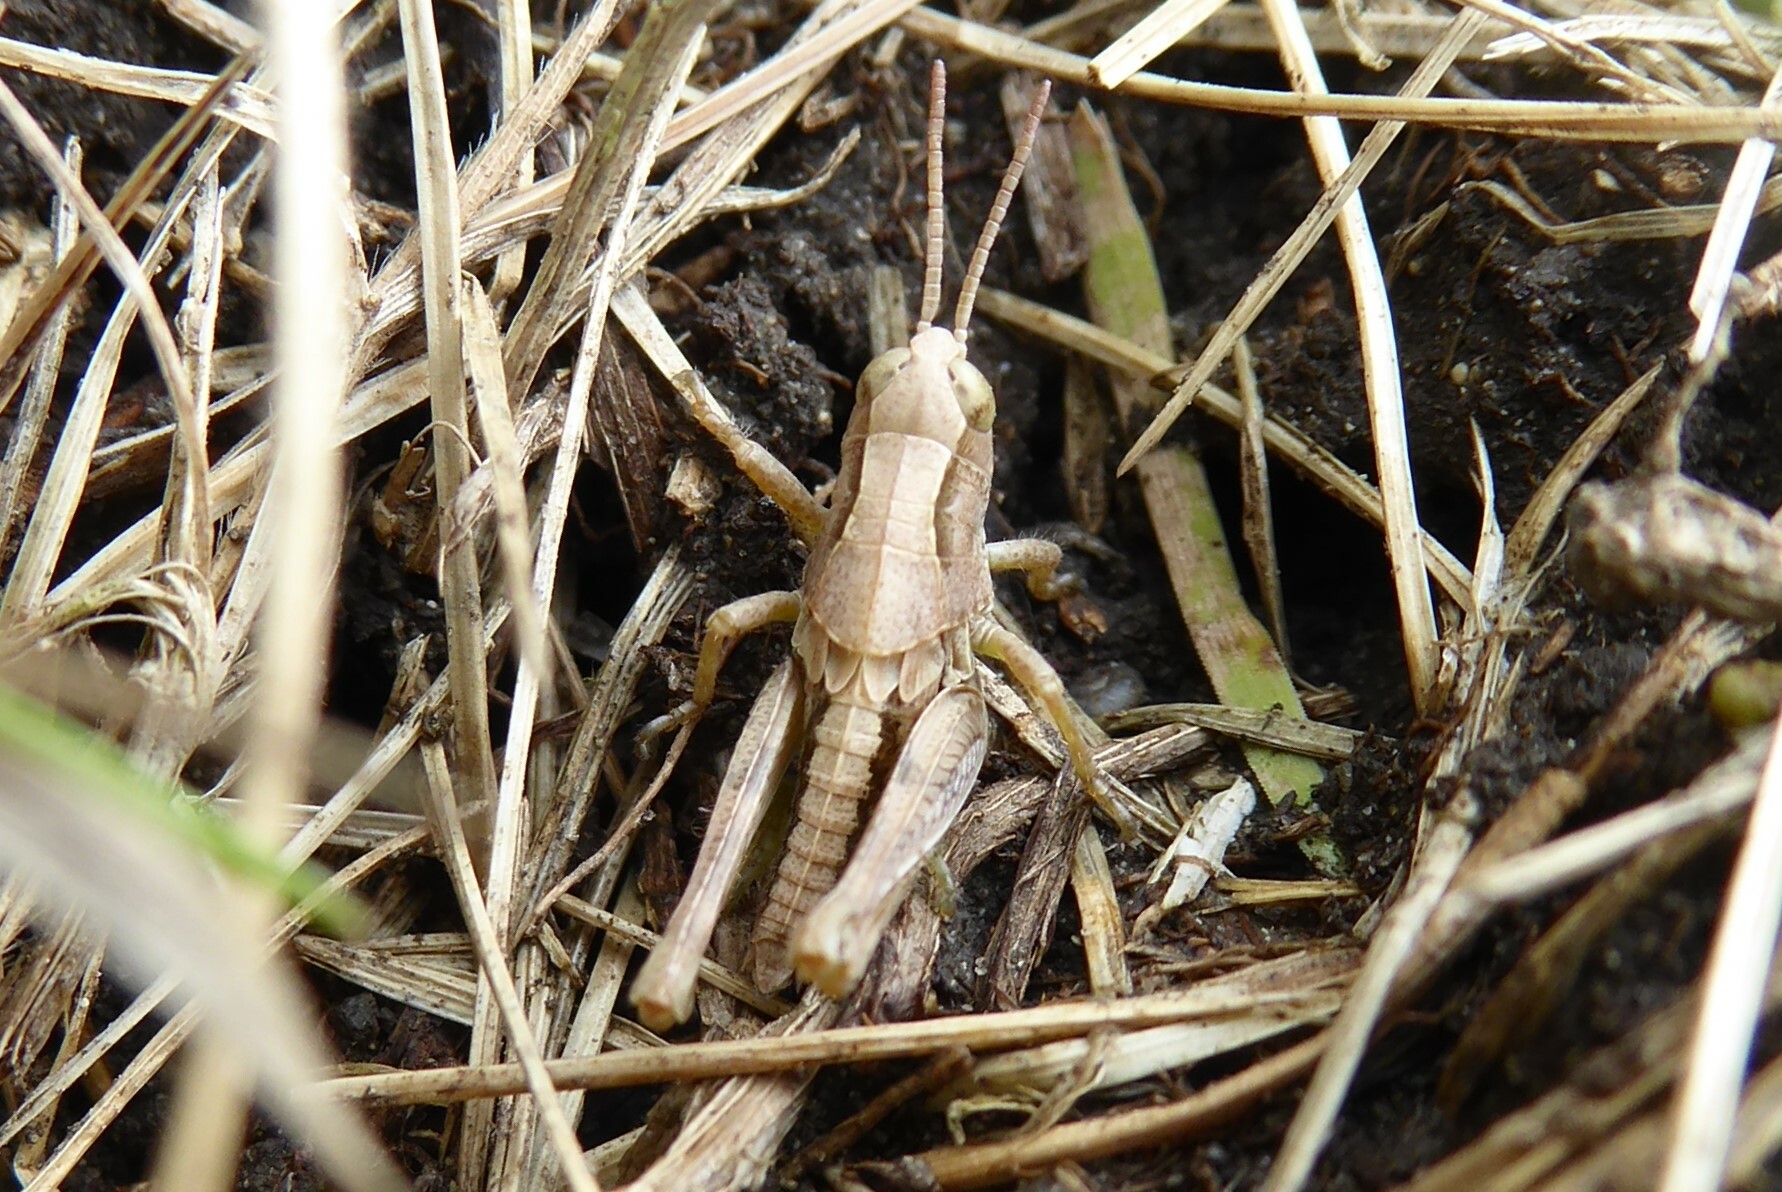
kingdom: Animalia
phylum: Arthropoda
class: Insecta
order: Orthoptera
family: Acrididae
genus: Phaulacridium
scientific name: Phaulacridium marginale
